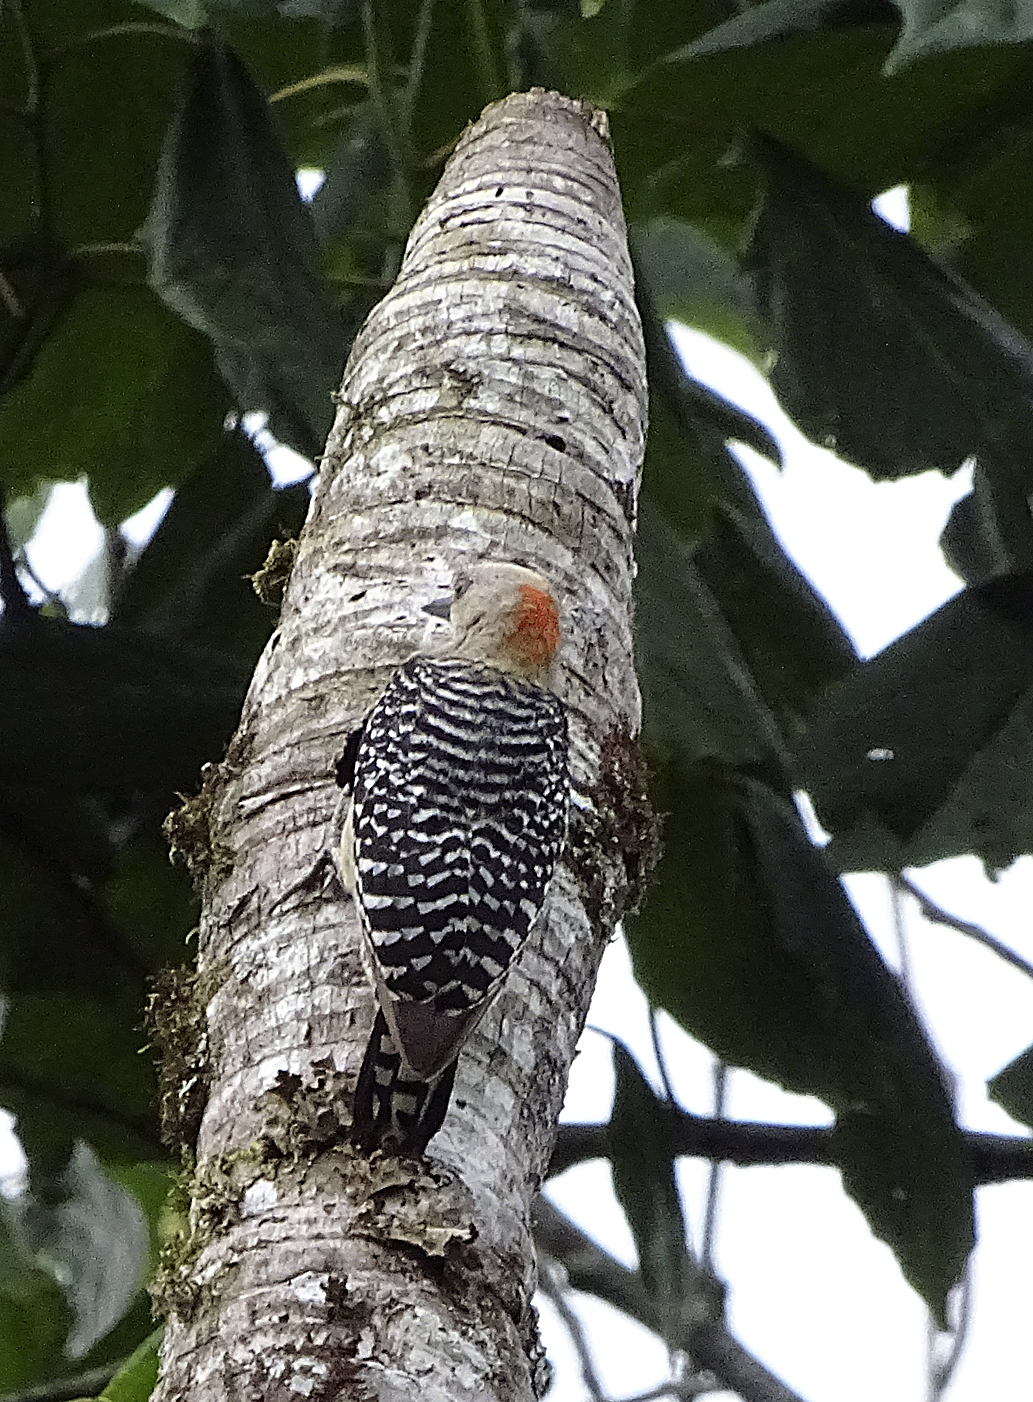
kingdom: Animalia
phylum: Chordata
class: Aves
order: Piciformes
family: Picidae
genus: Melanerpes
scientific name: Melanerpes rubricapillus
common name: Red-crowned woodpecker
